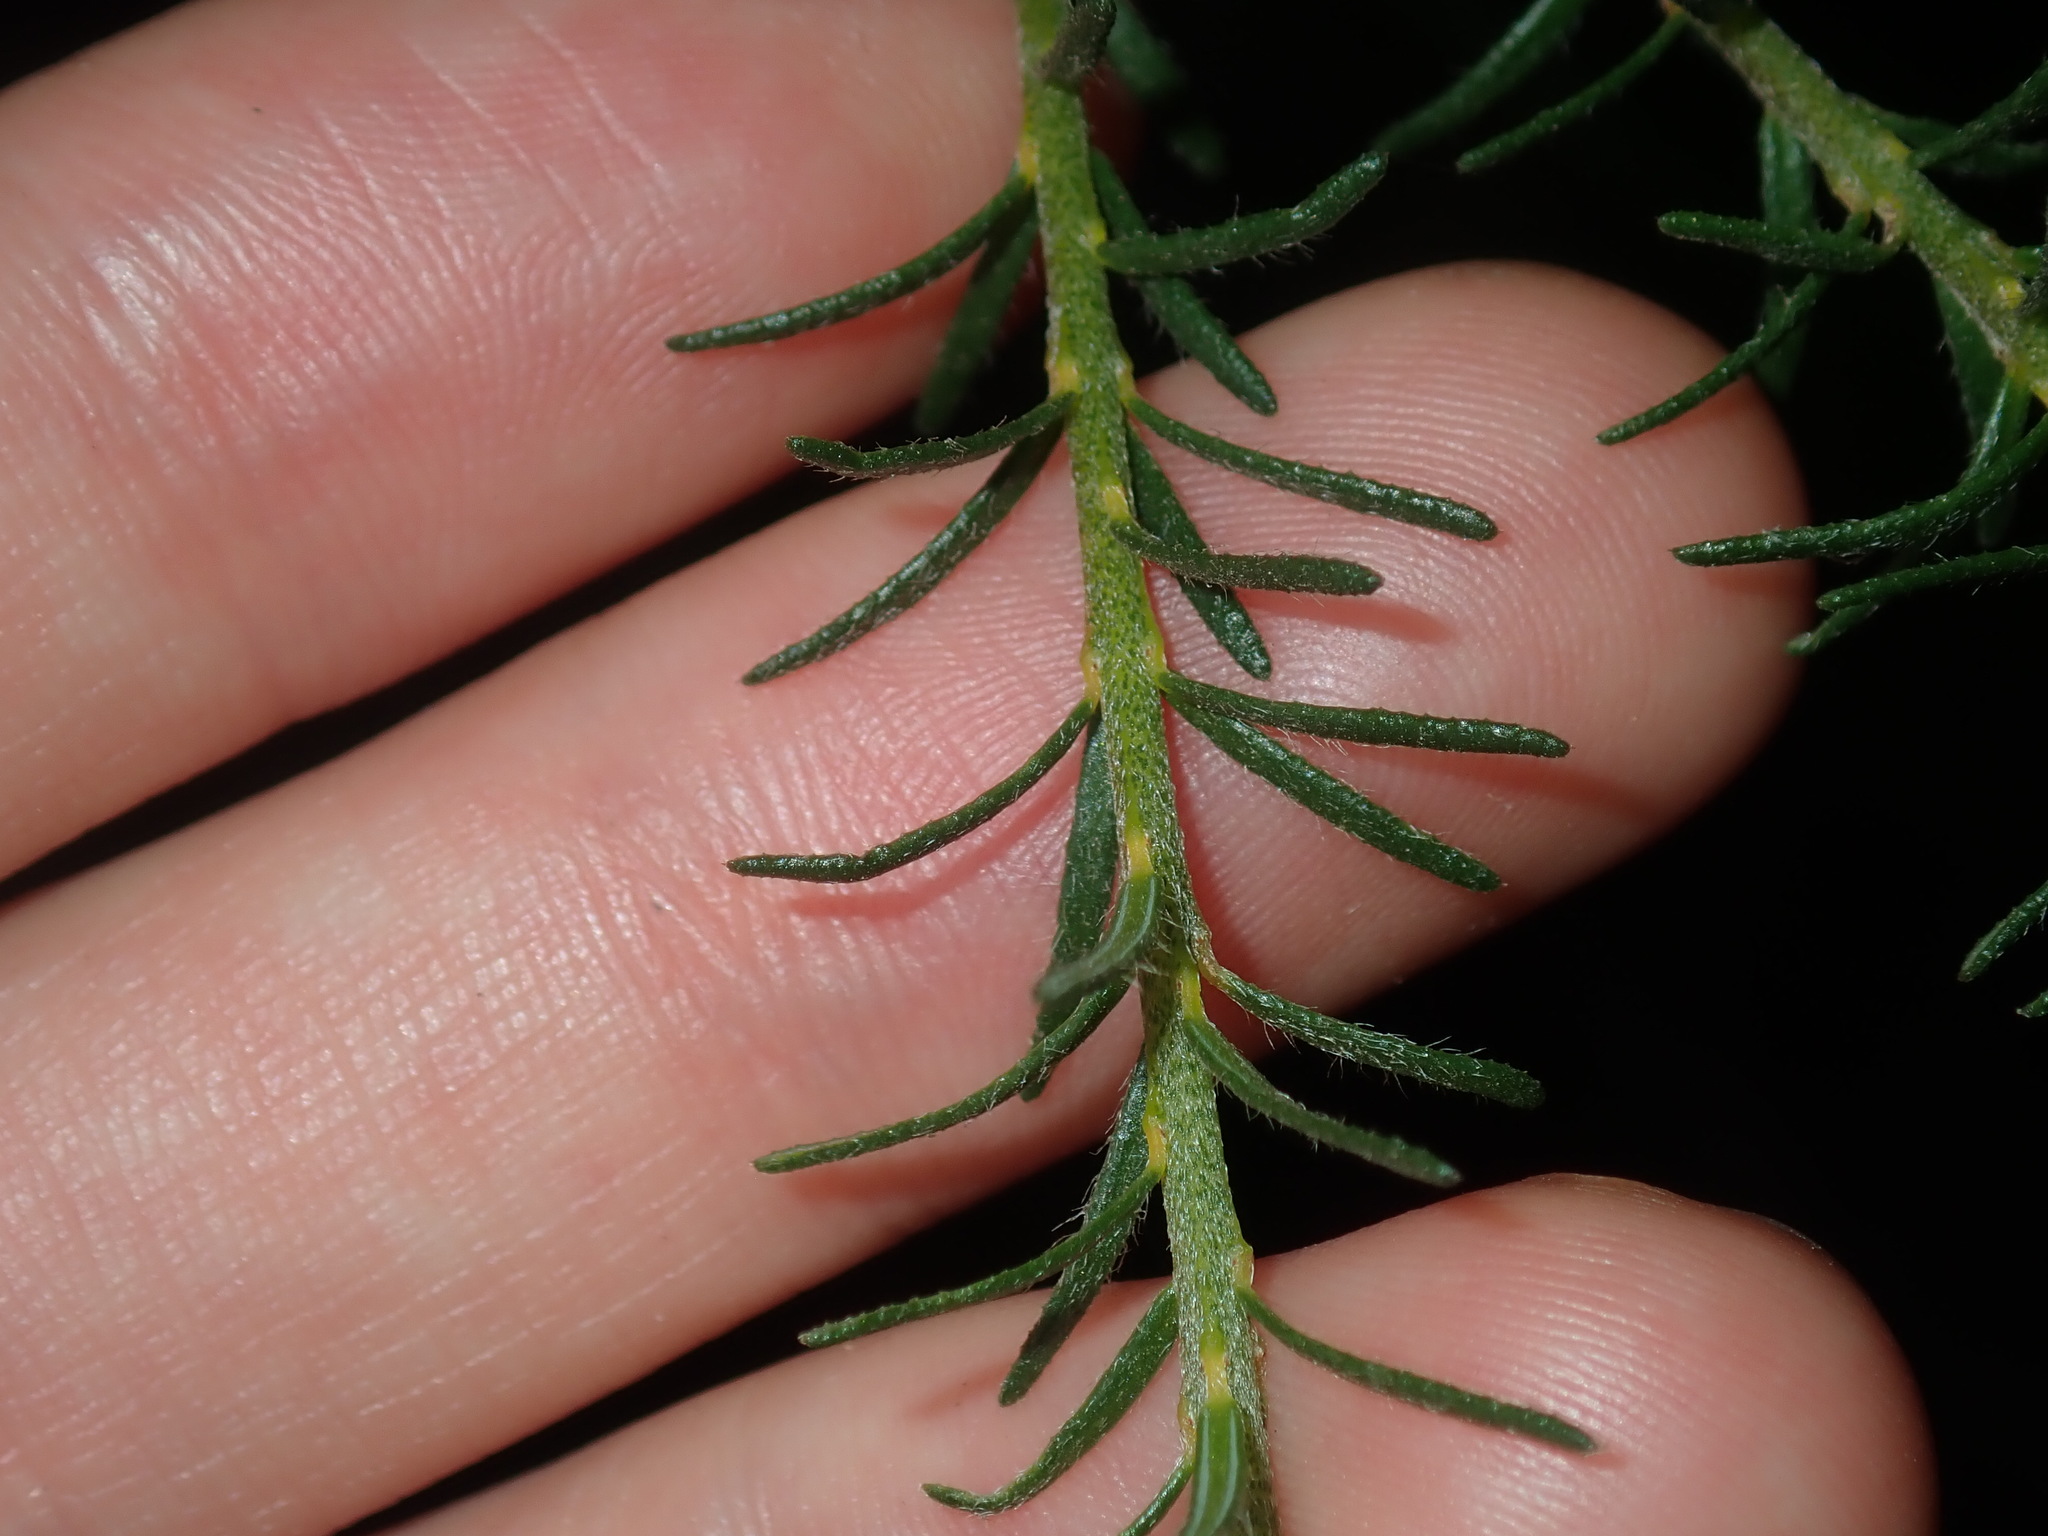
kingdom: Plantae
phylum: Tracheophyta
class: Magnoliopsida
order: Fabales
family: Fabaceae
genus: Phyllota
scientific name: Phyllota phylicoides
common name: Heath phyllota
